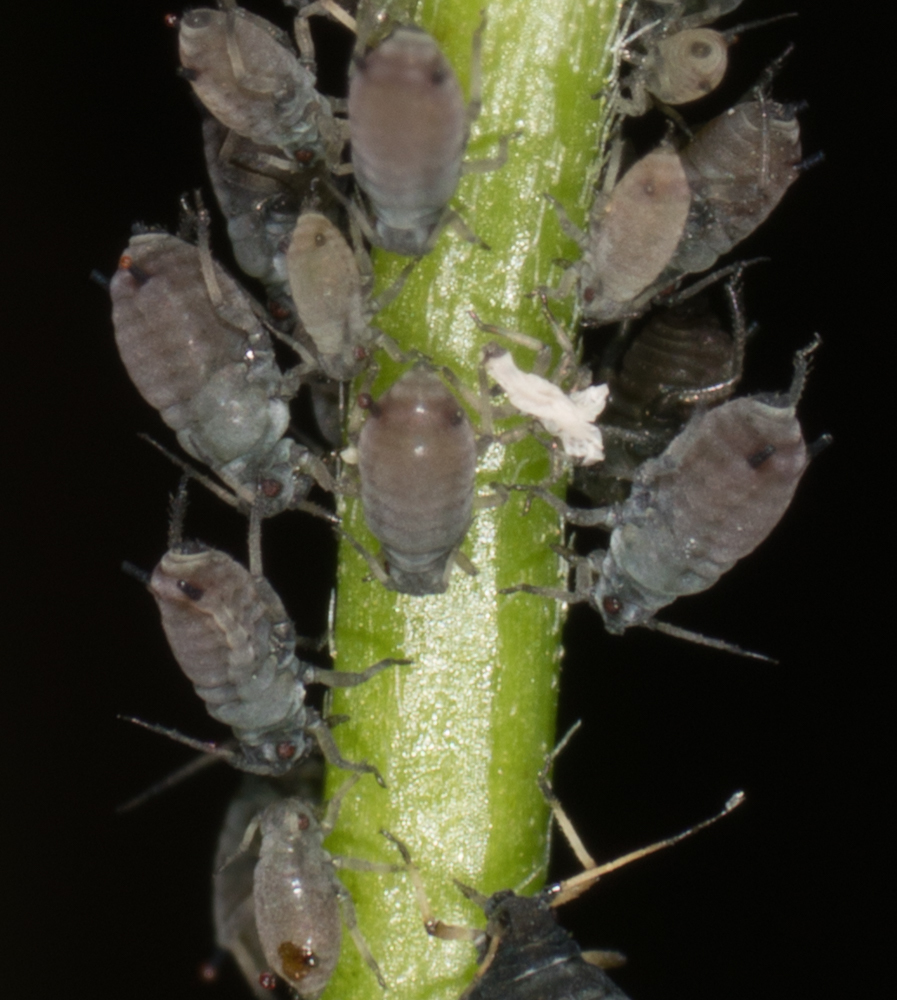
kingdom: Animalia
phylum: Arthropoda
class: Insecta
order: Hemiptera
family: Aphididae
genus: Aphis
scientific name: Aphis craccivora
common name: Cowpea aphid
